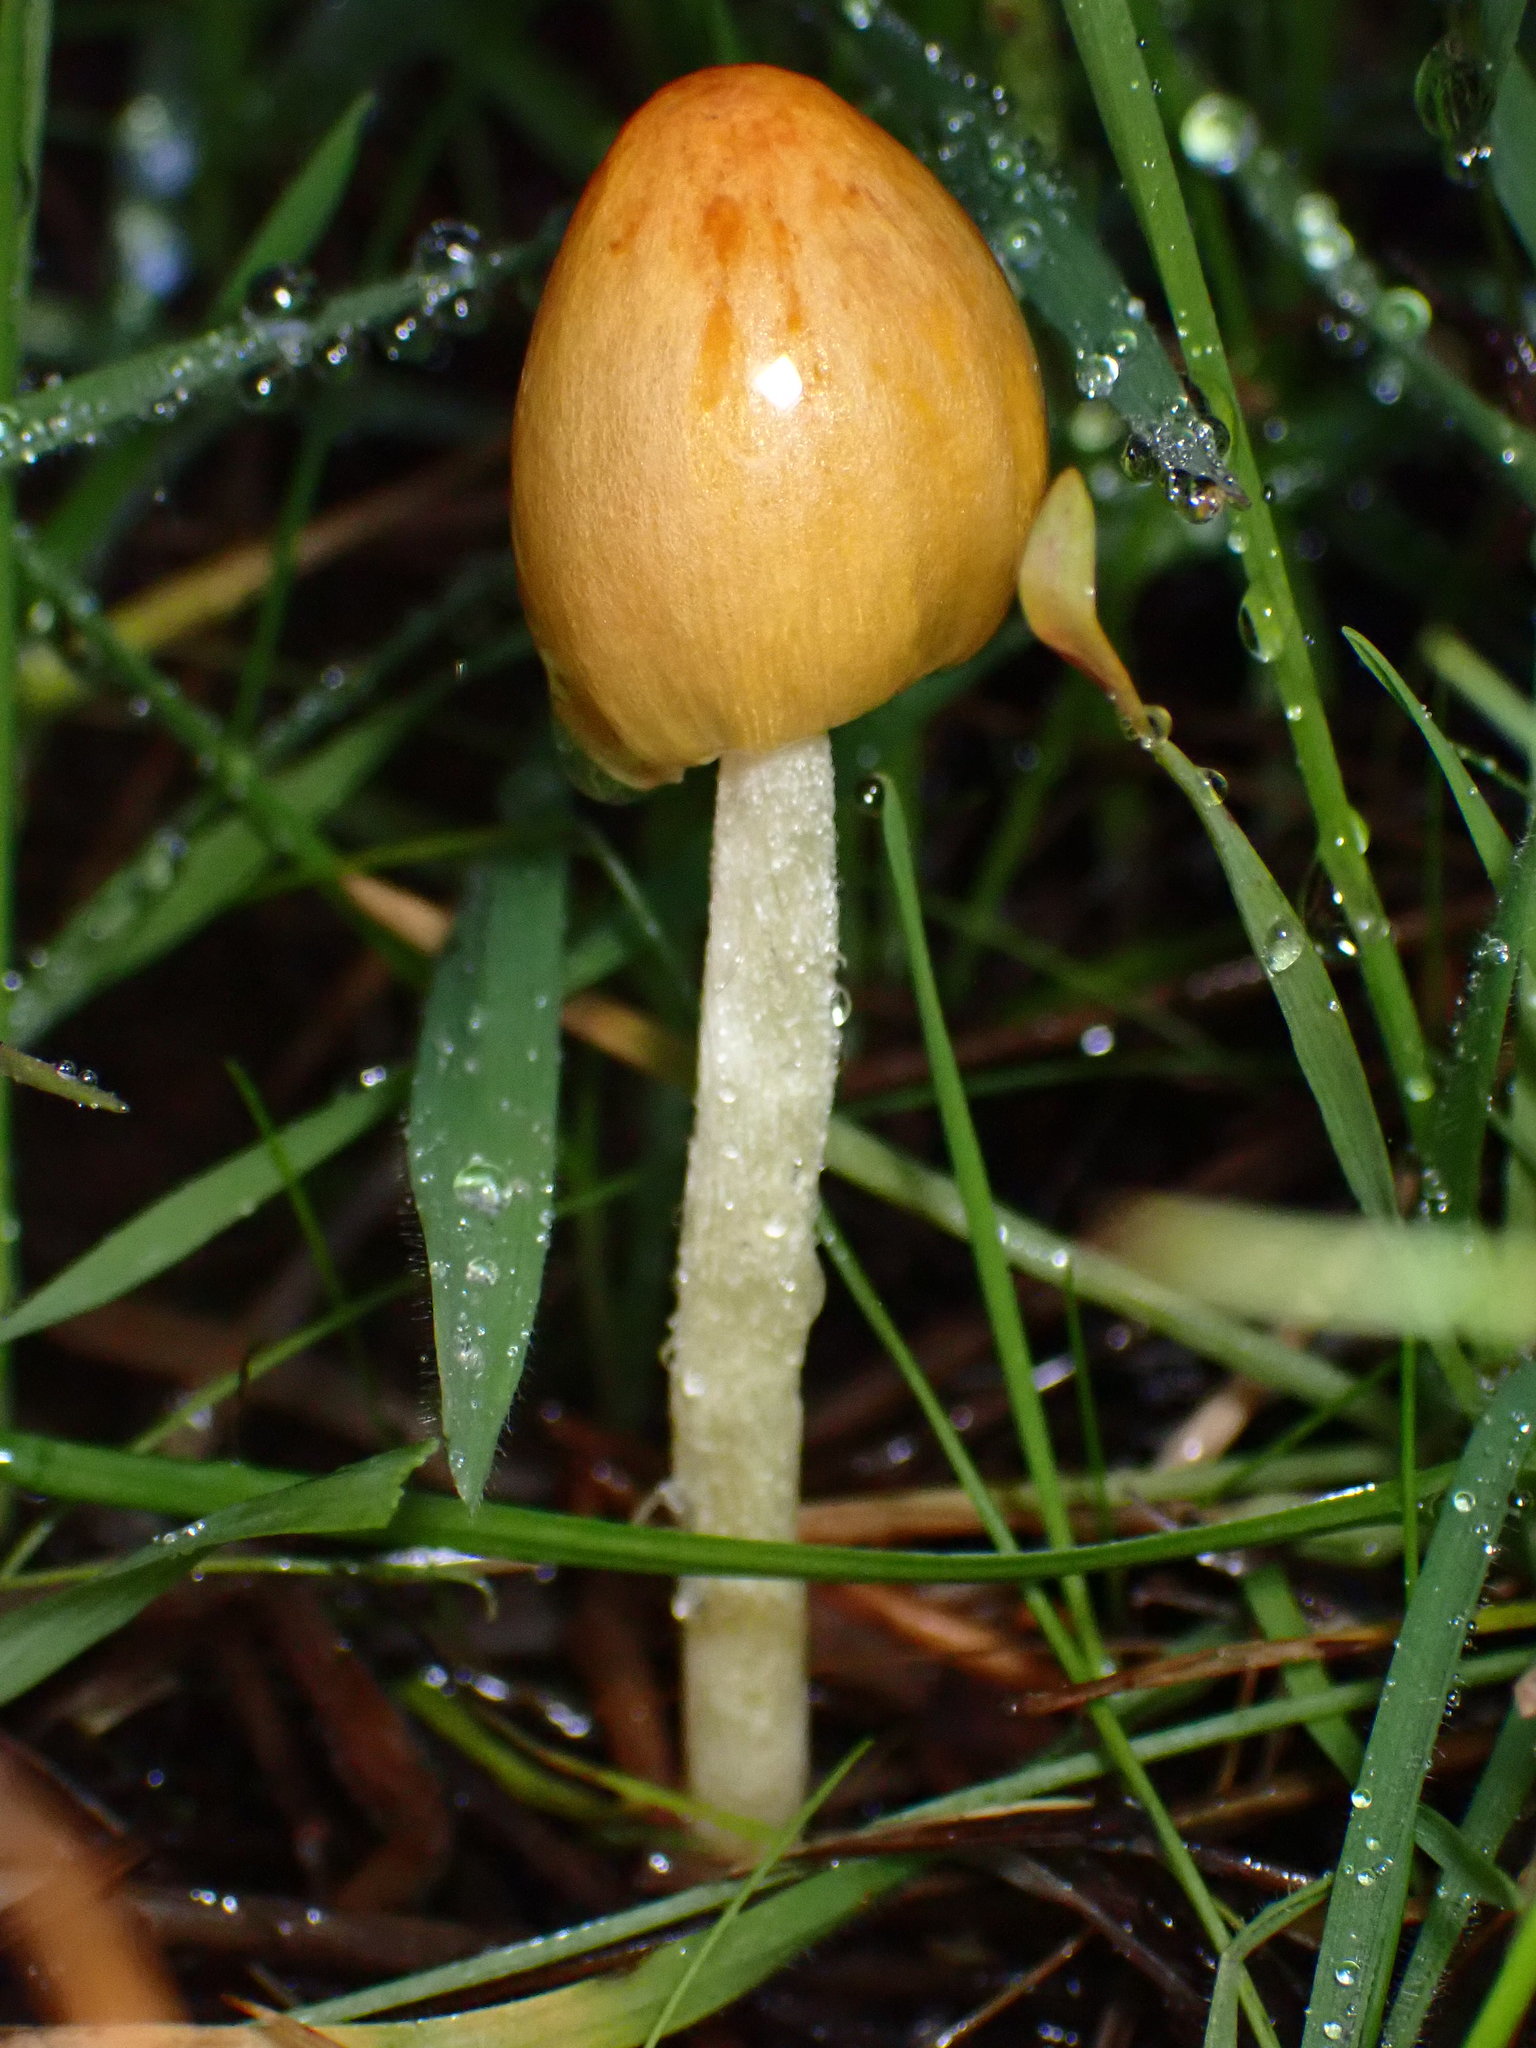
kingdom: Fungi
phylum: Basidiomycota
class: Agaricomycetes
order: Agaricales
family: Bolbitiaceae
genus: Bolbitius
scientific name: Bolbitius titubans
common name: Yellow fieldcap
